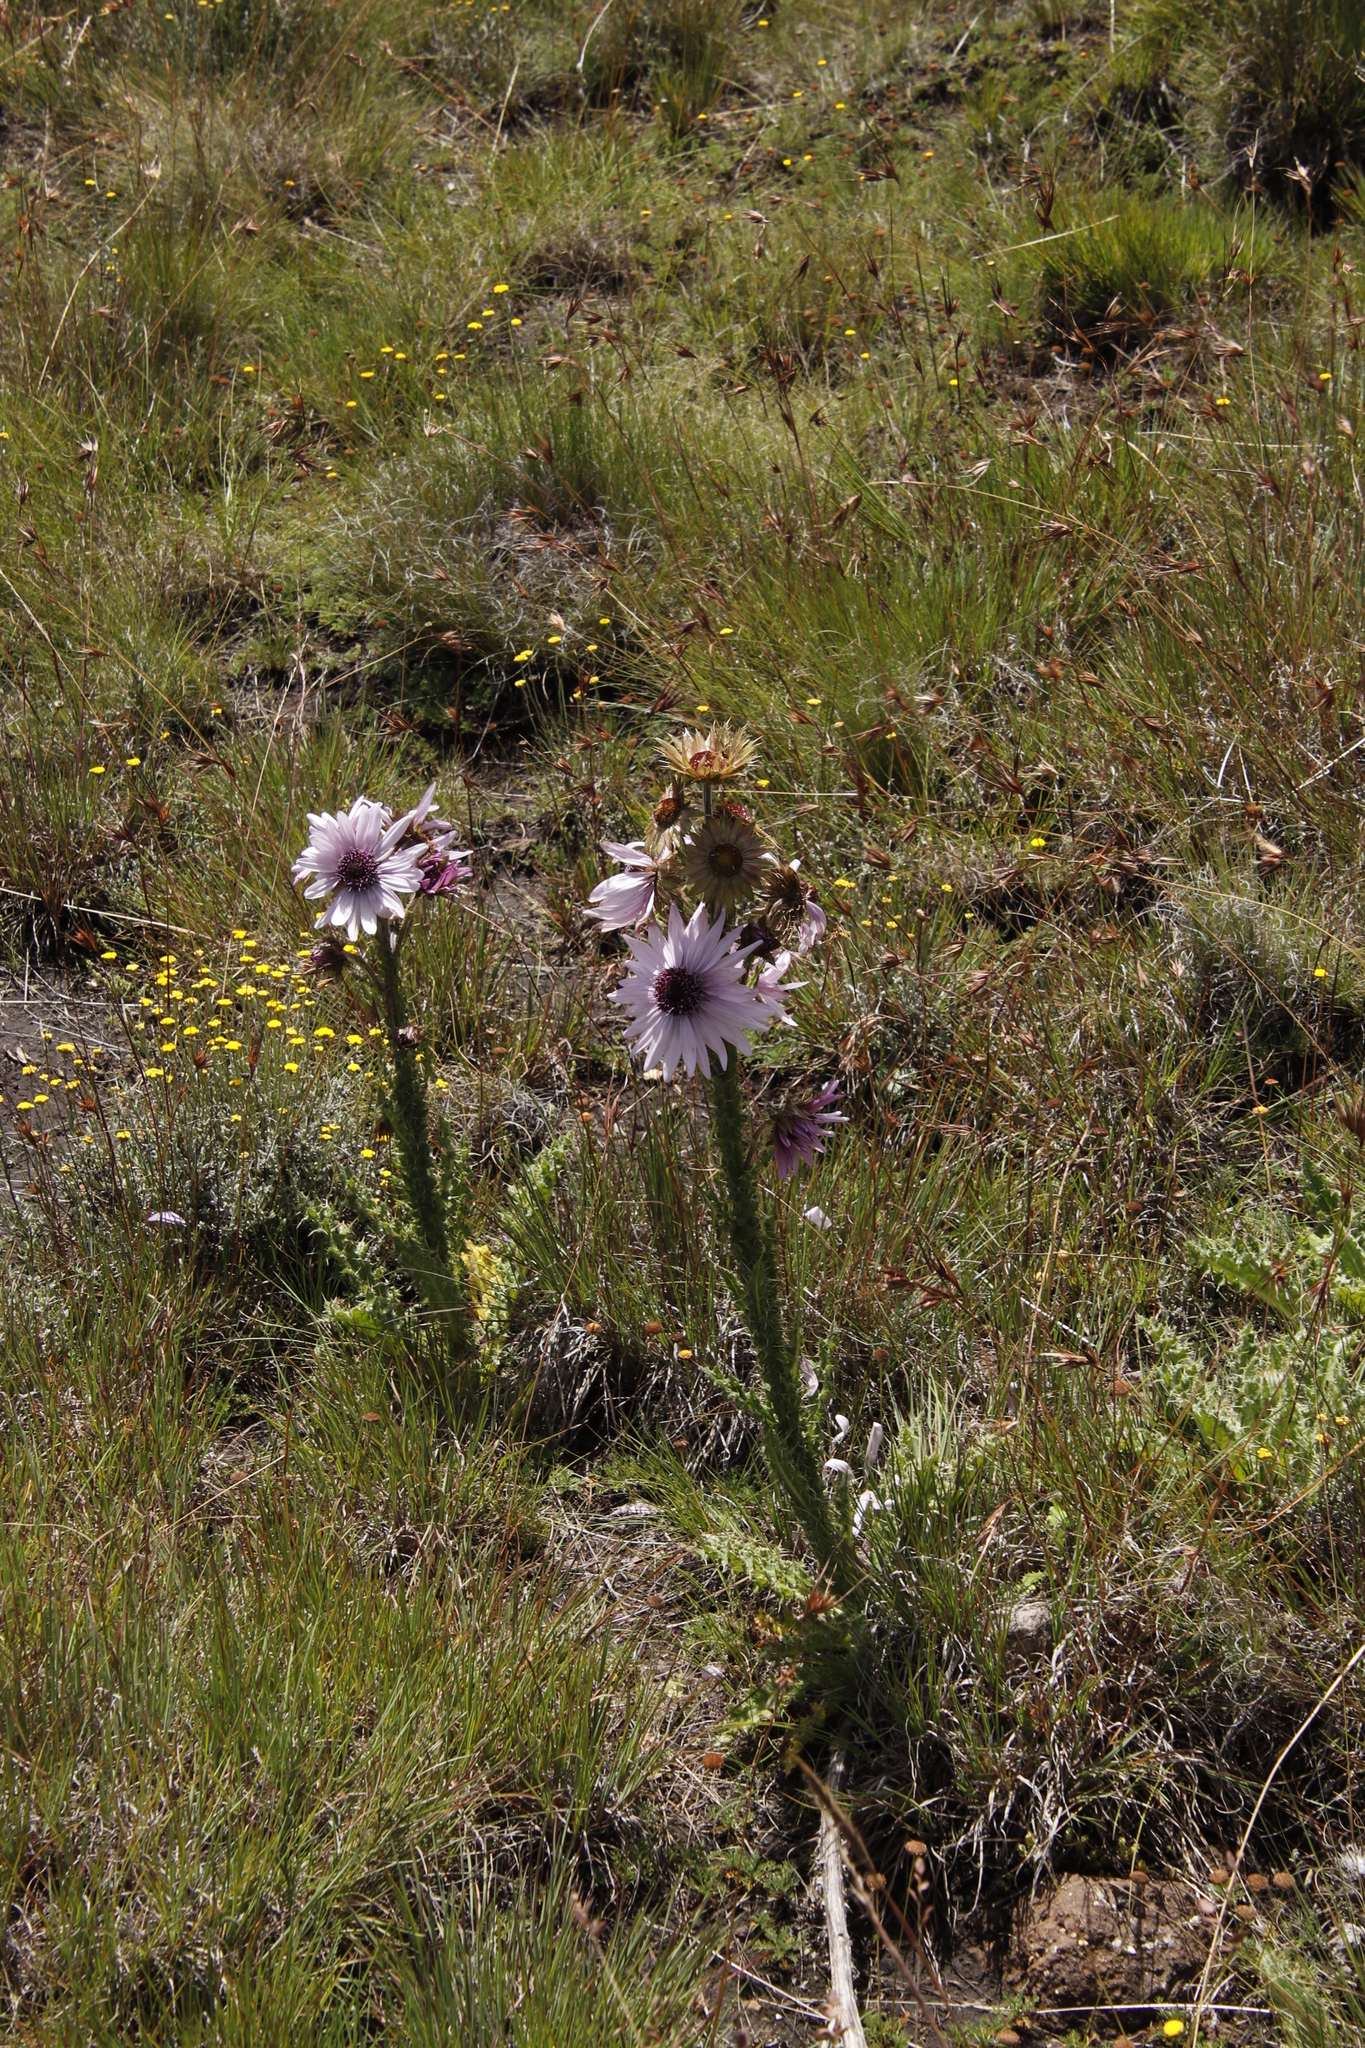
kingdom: Plantae
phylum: Tracheophyta
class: Magnoliopsida
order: Asterales
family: Asteraceae
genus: Berkheya
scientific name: Berkheya purpurea
